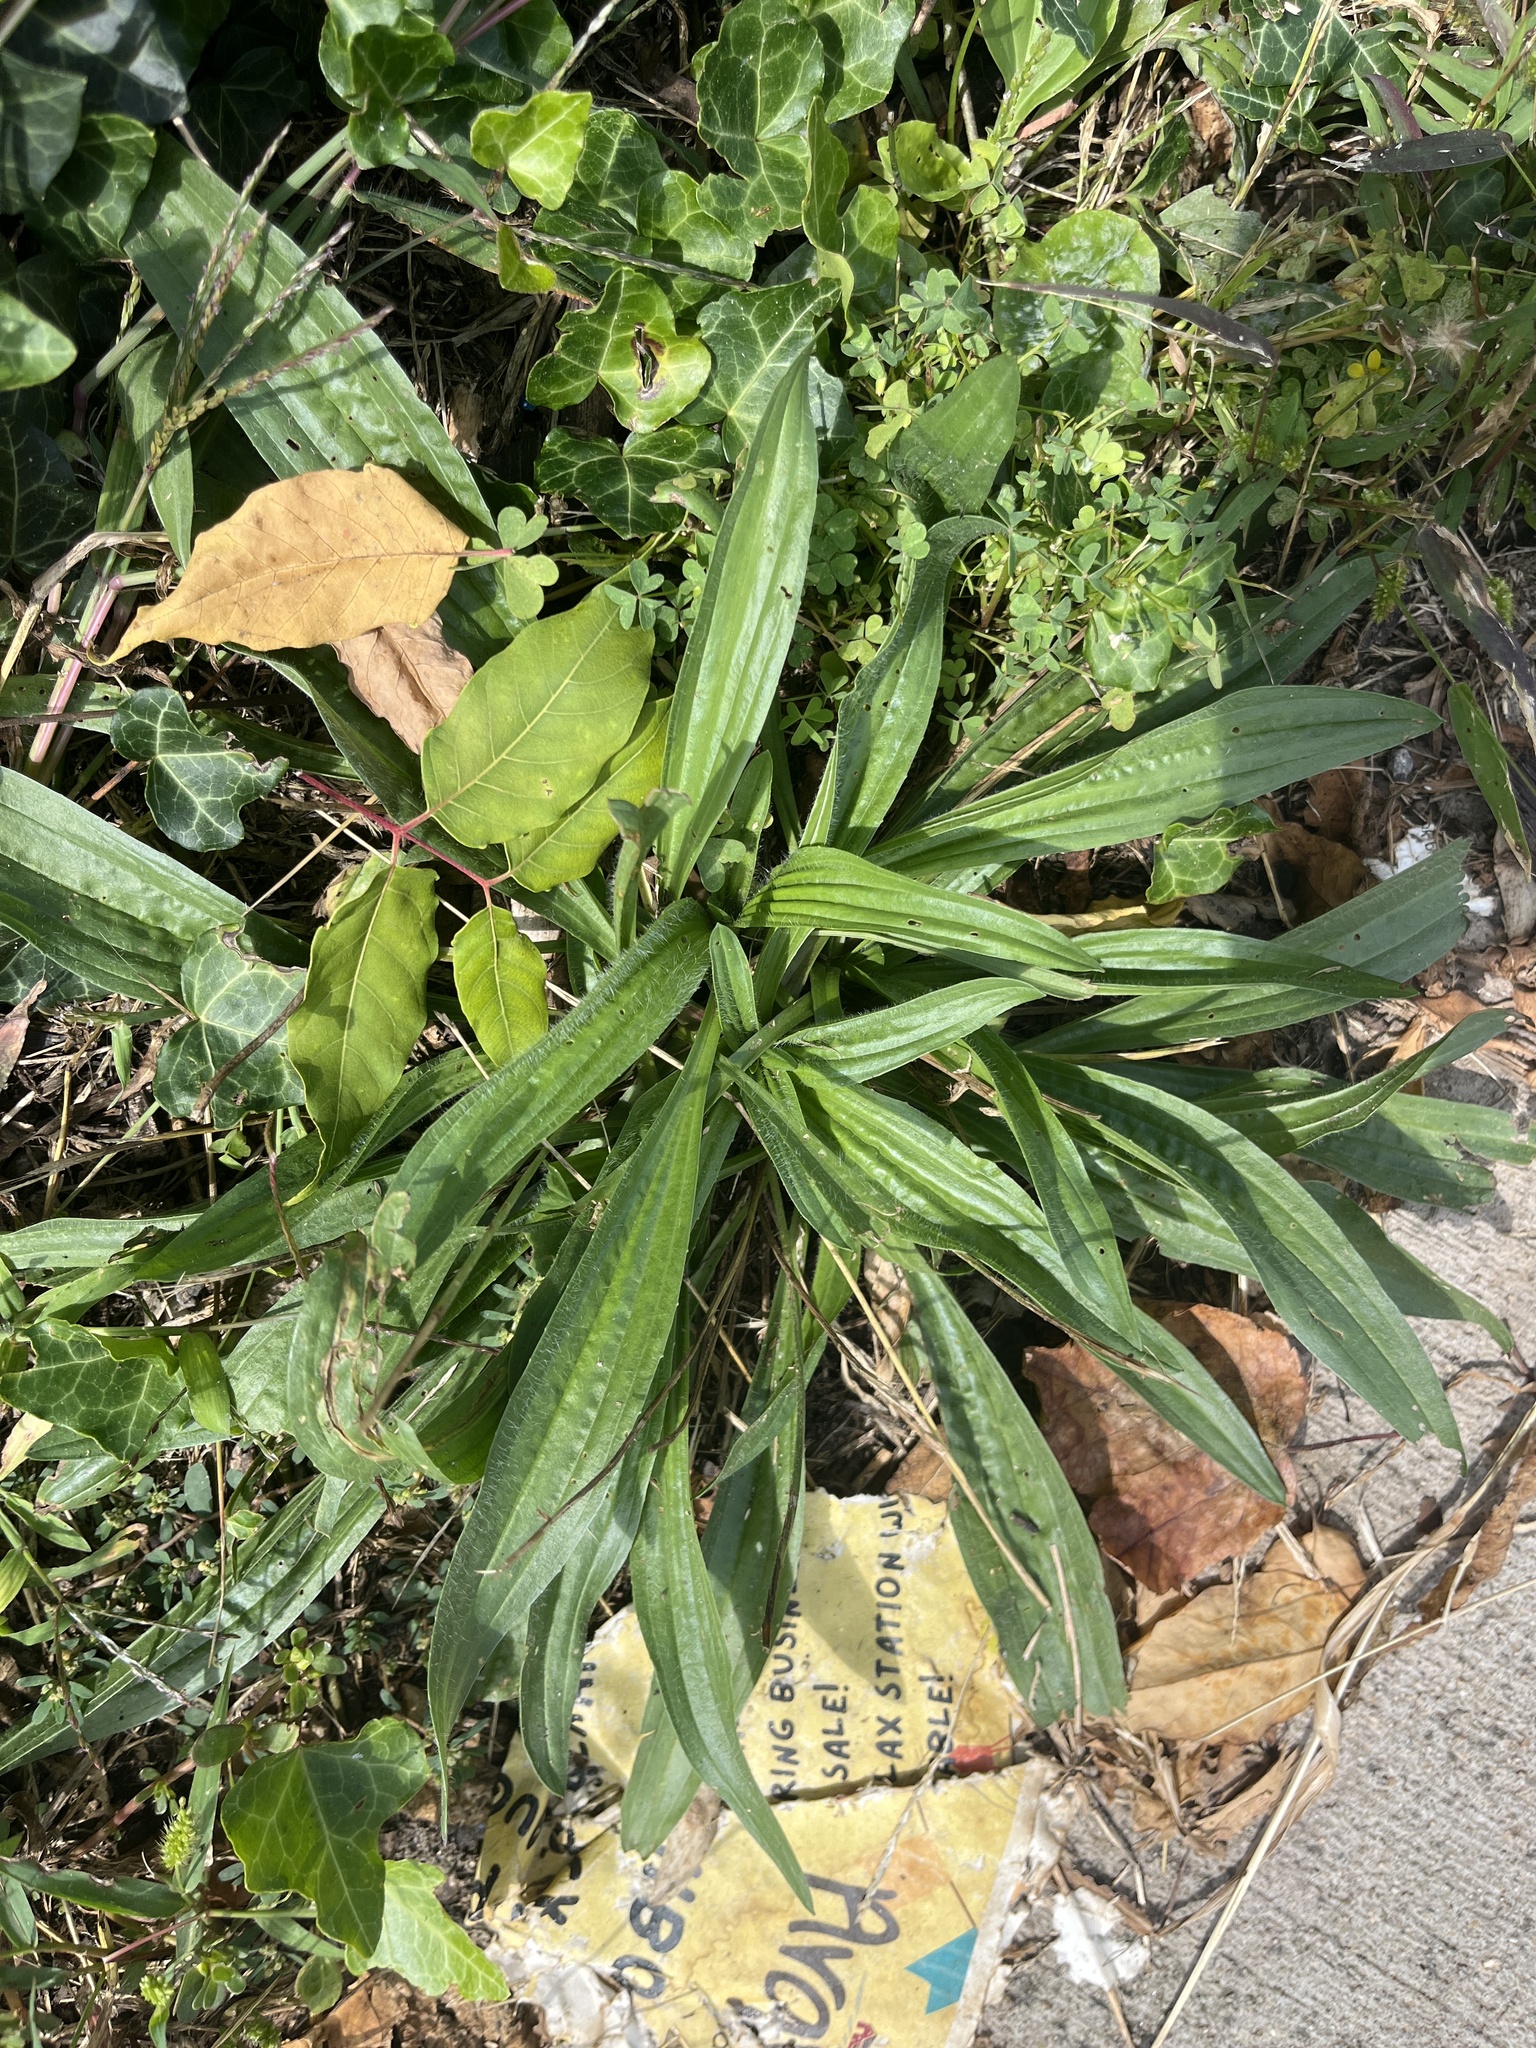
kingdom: Plantae
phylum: Tracheophyta
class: Magnoliopsida
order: Lamiales
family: Plantaginaceae
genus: Plantago
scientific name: Plantago lanceolata
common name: Ribwort plantain
